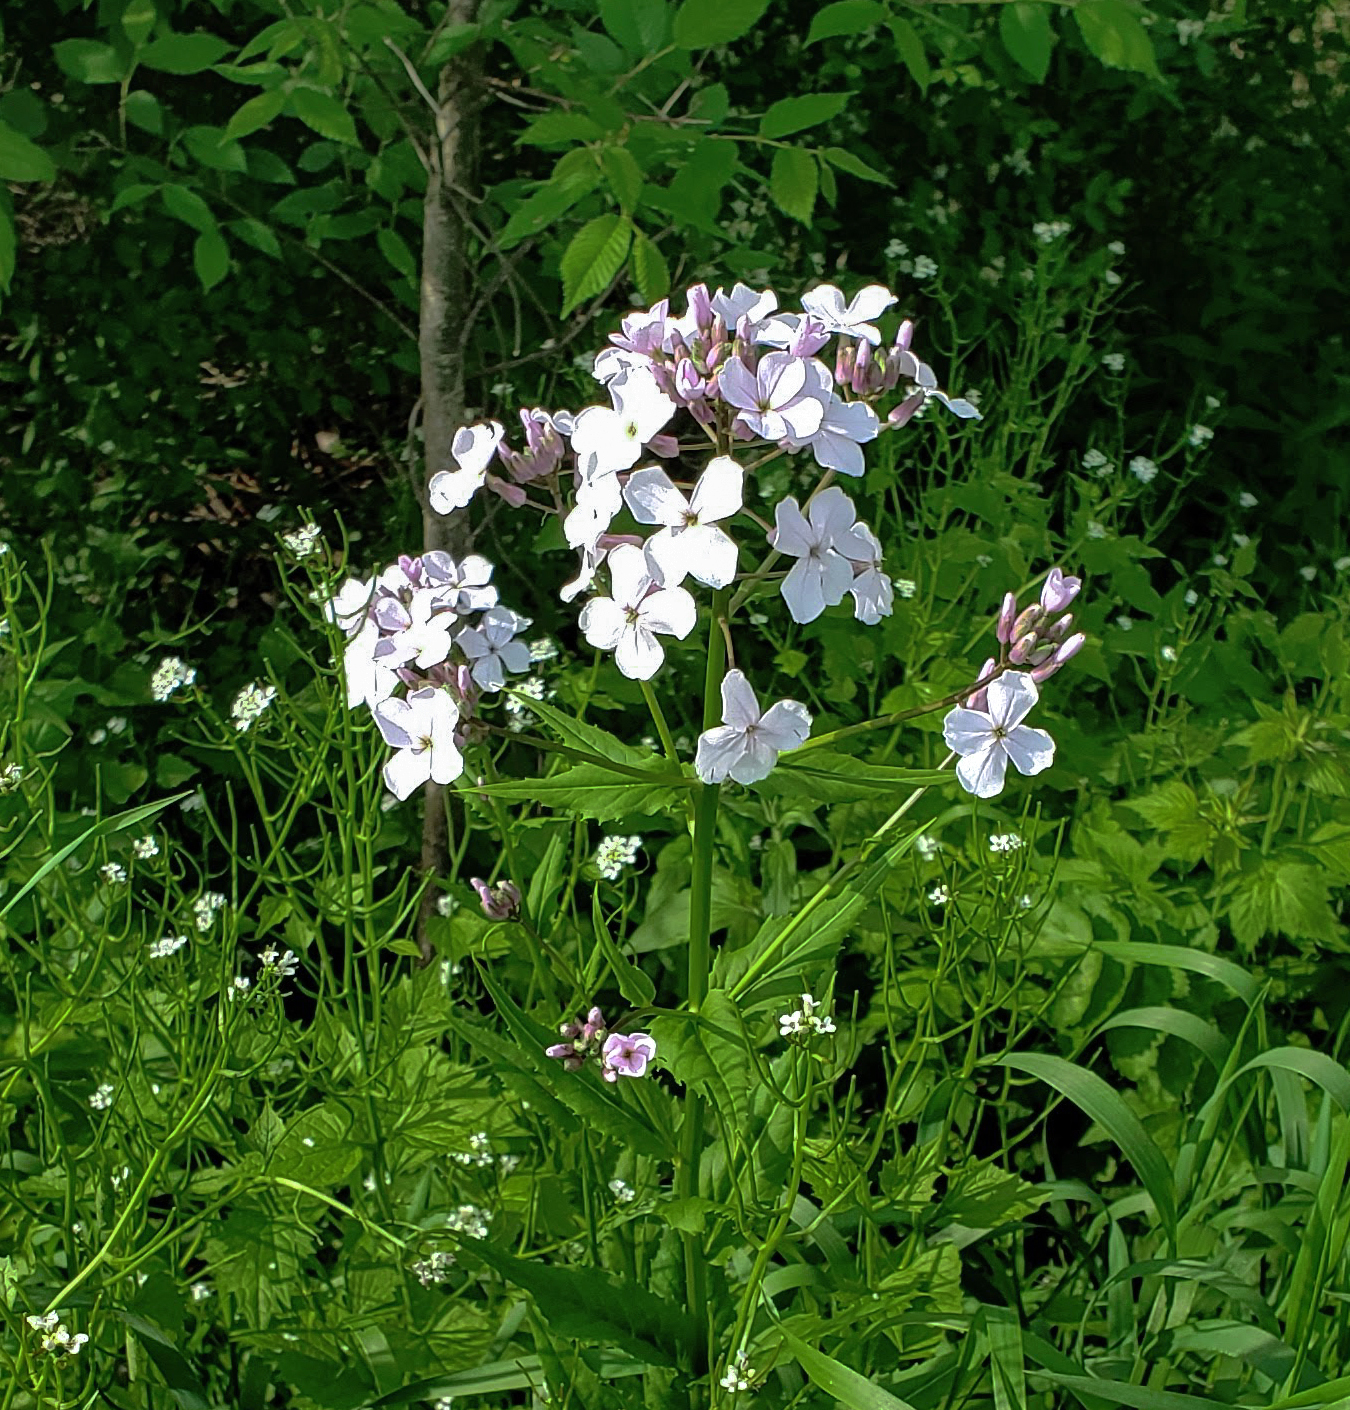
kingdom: Plantae
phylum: Tracheophyta
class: Magnoliopsida
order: Brassicales
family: Brassicaceae
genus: Hesperis
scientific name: Hesperis matronalis
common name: Dame's-violet
